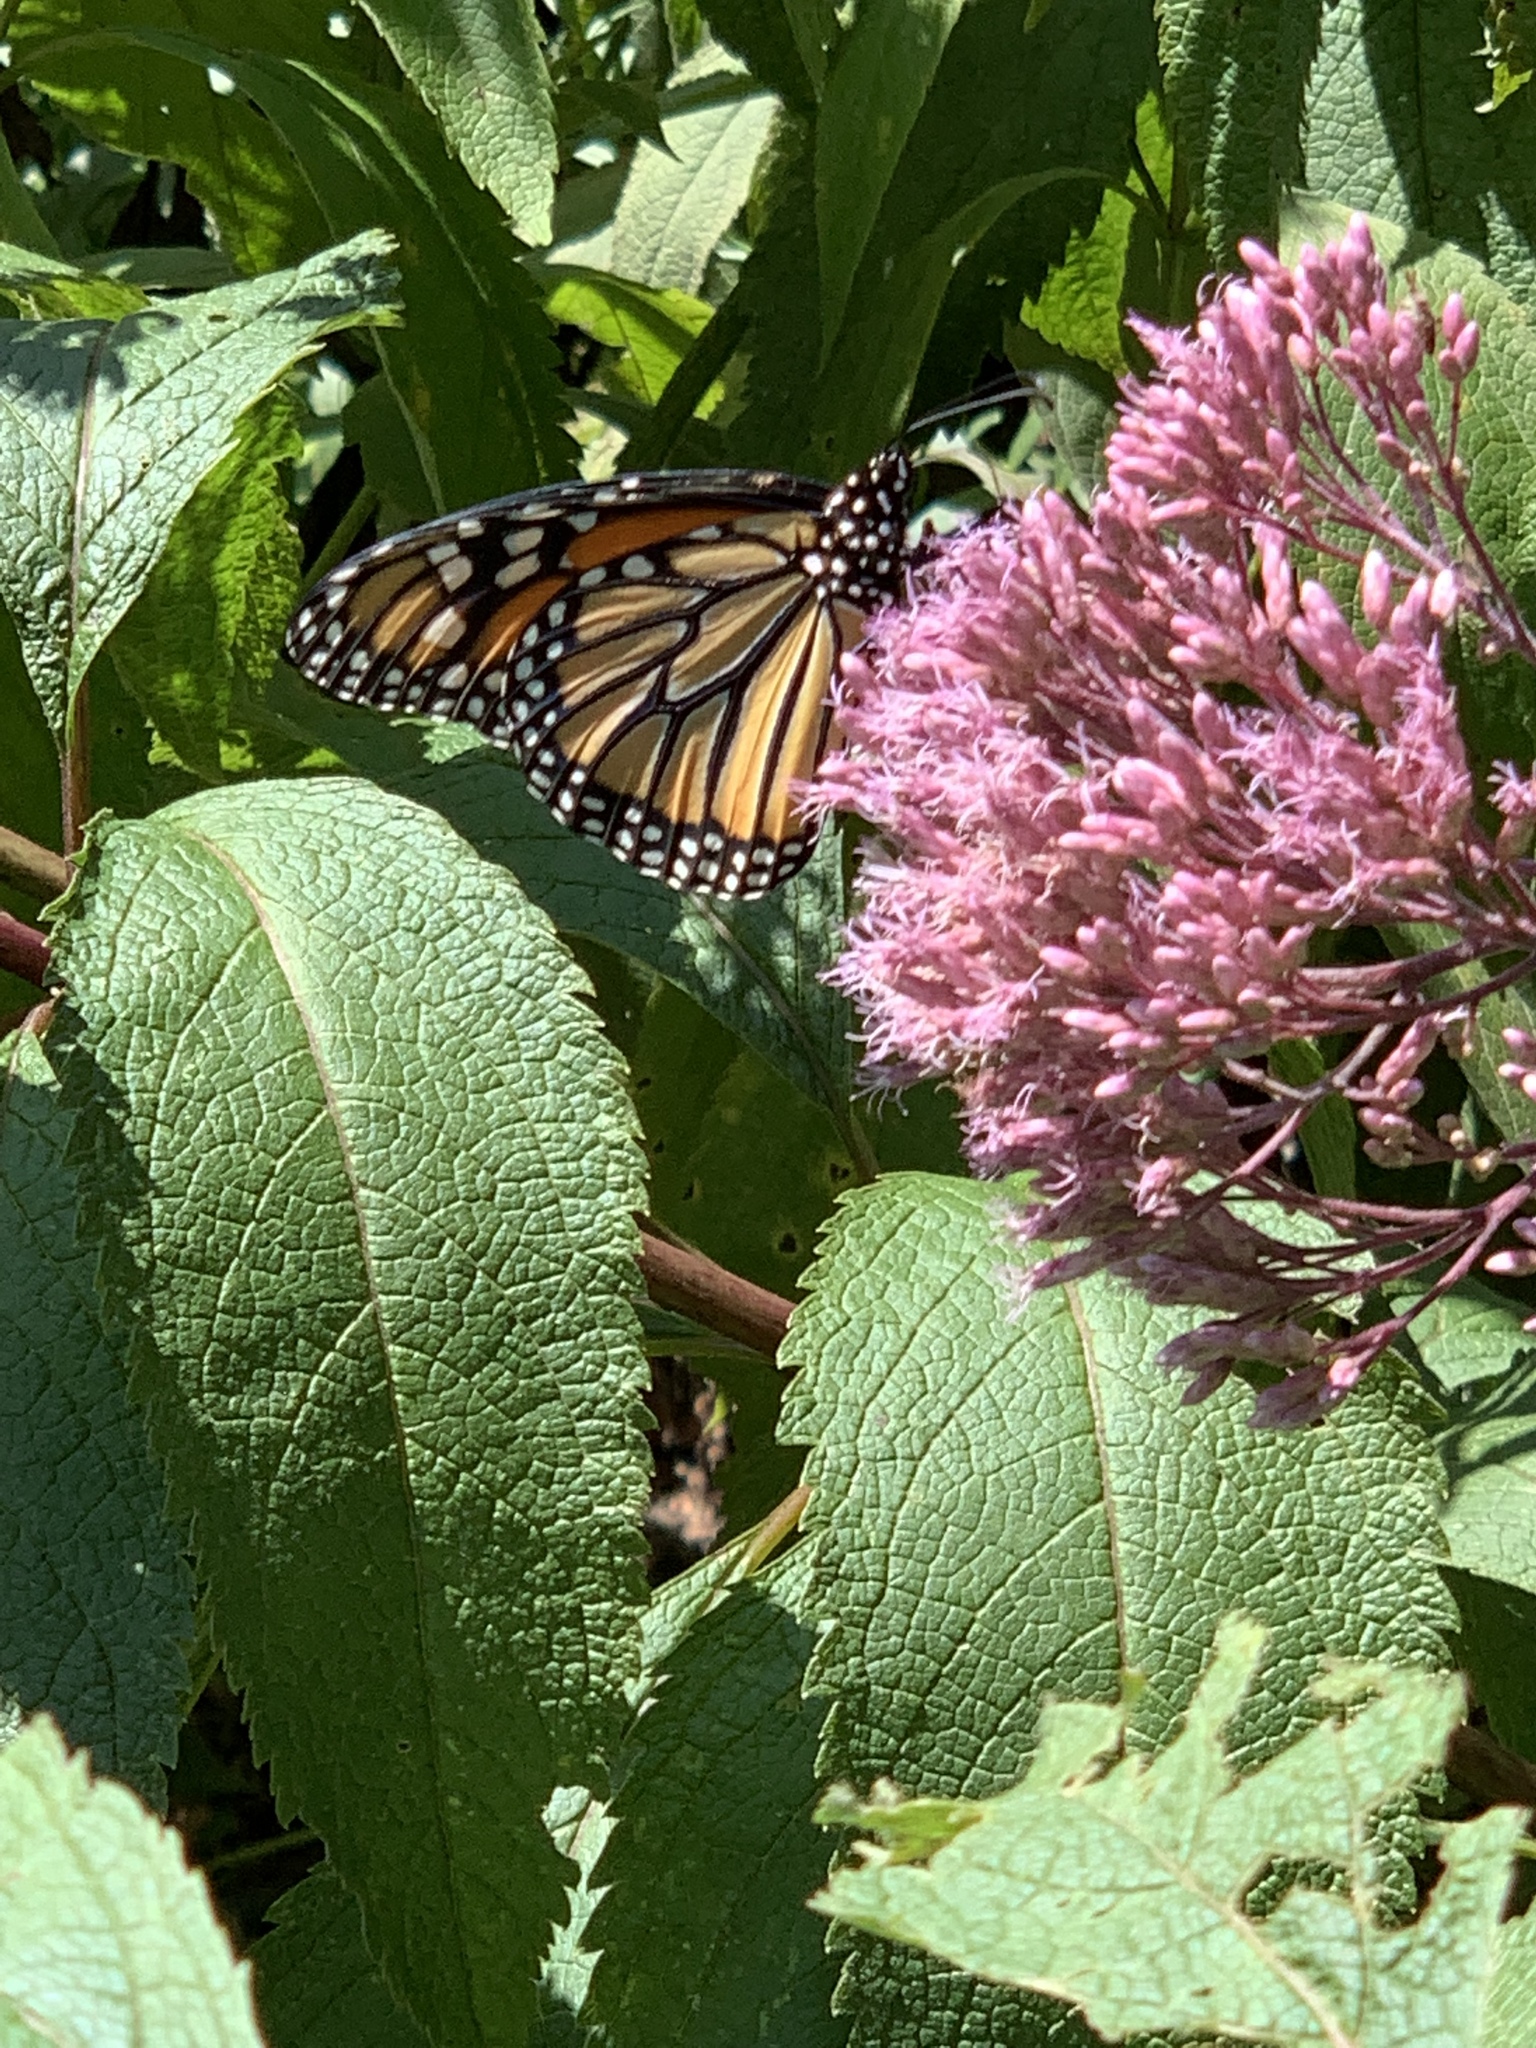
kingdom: Animalia
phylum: Arthropoda
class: Insecta
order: Lepidoptera
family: Nymphalidae
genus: Danaus
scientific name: Danaus plexippus
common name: Monarch
